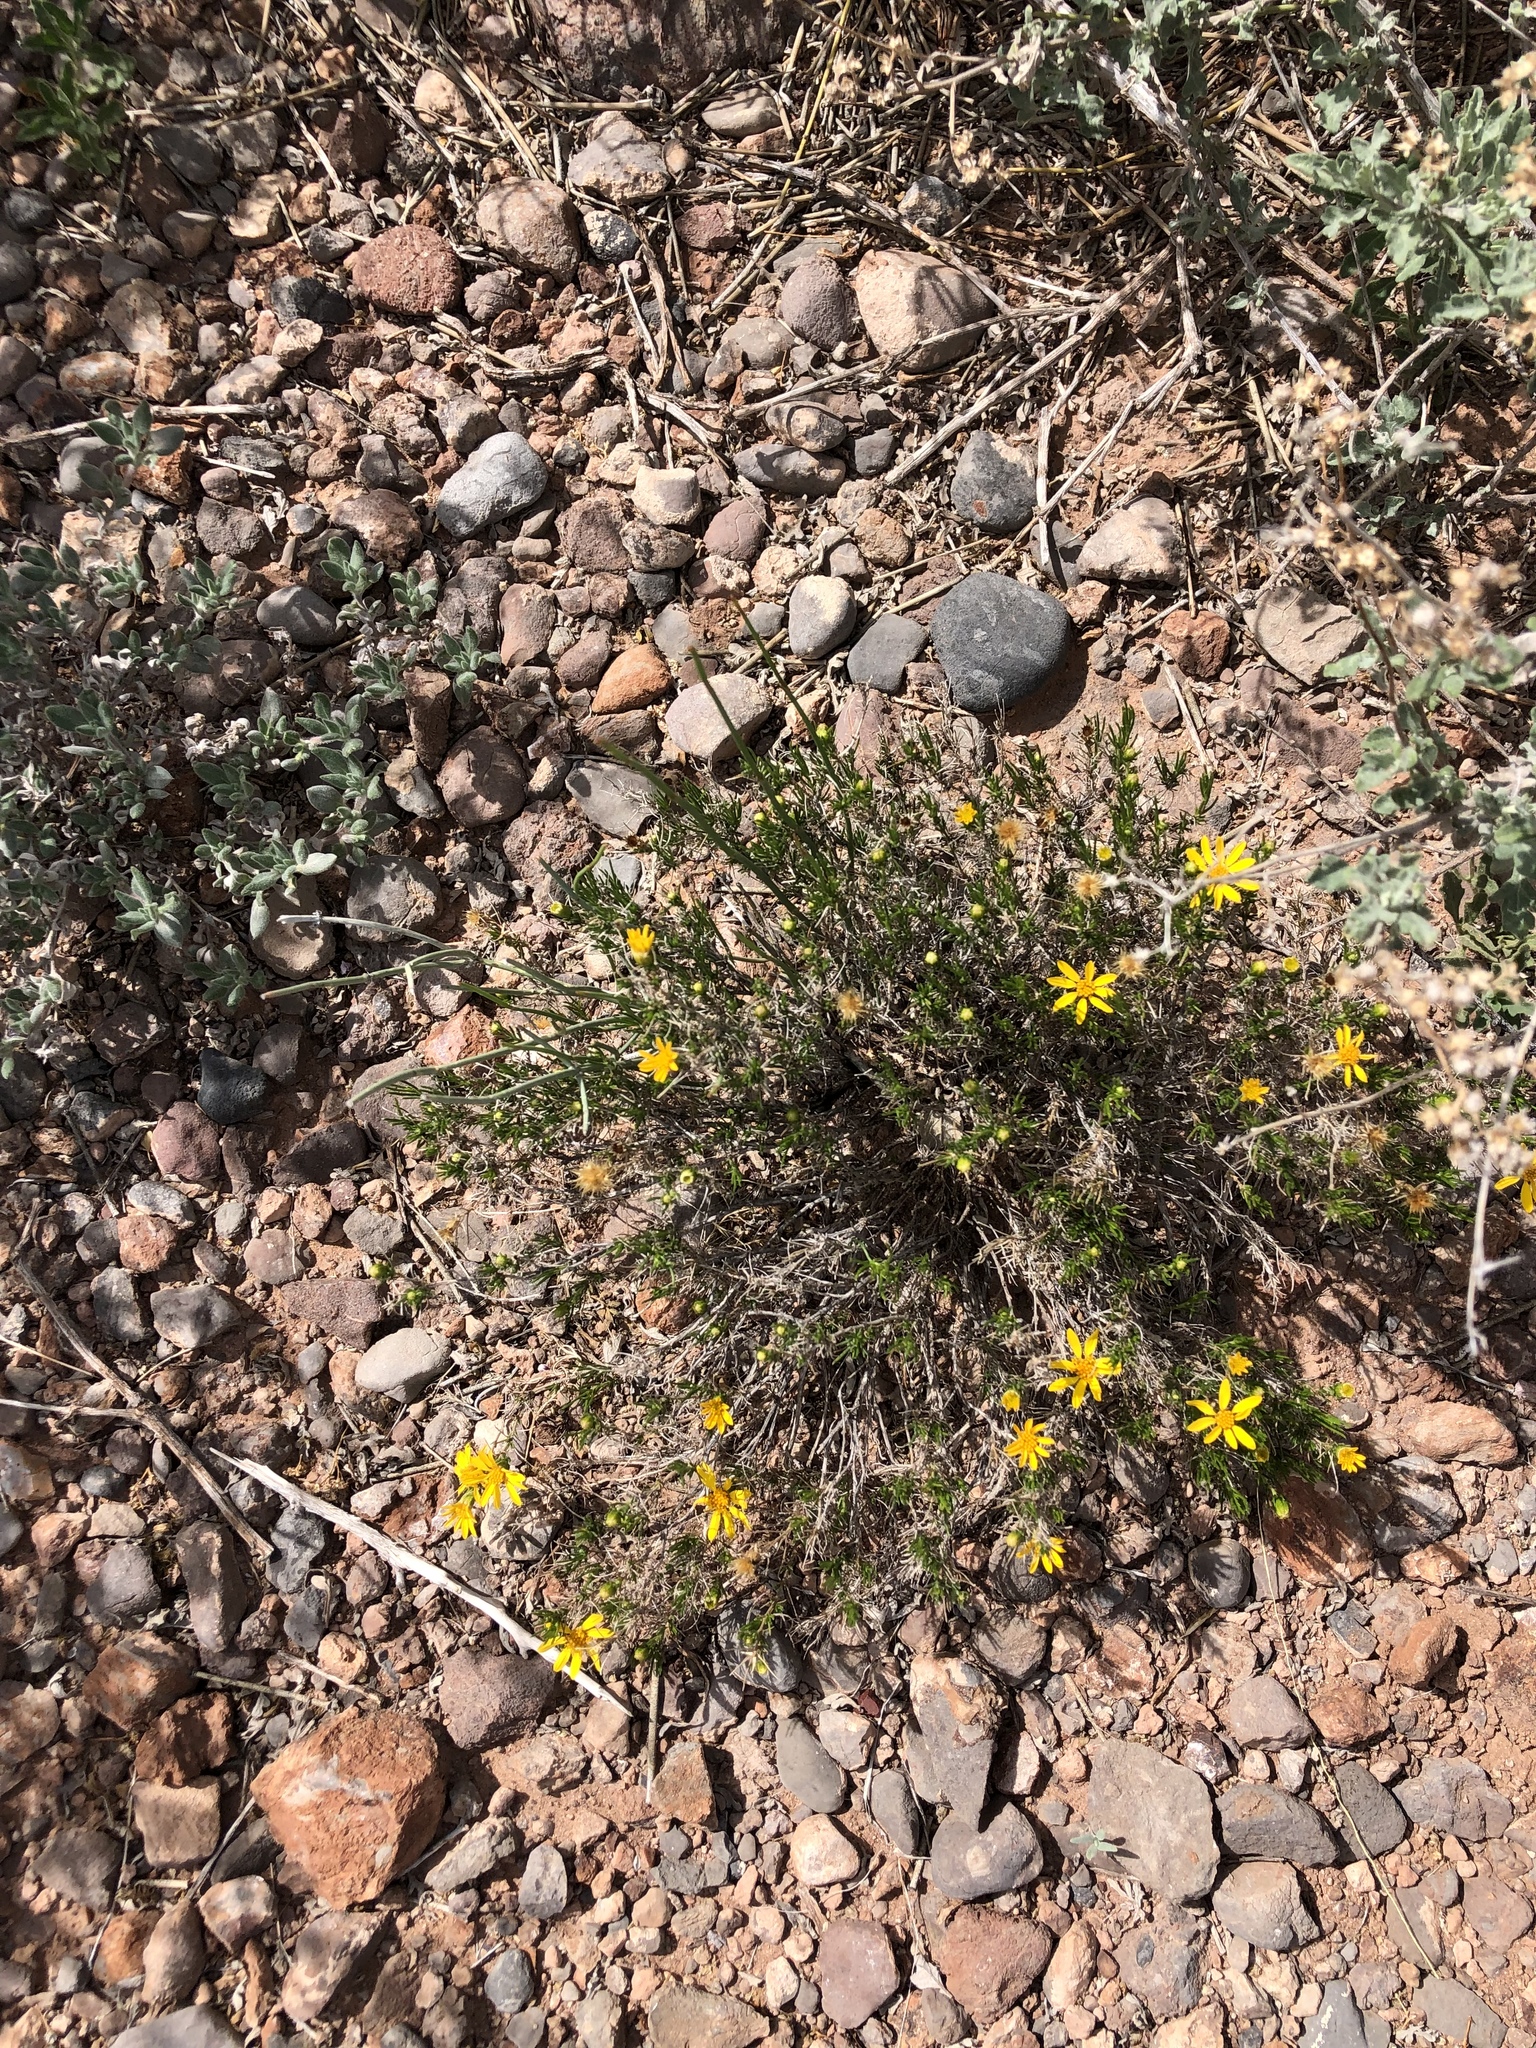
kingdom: Plantae
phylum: Tracheophyta
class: Magnoliopsida
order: Asterales
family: Asteraceae
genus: Thymophylla
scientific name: Thymophylla acerosa
